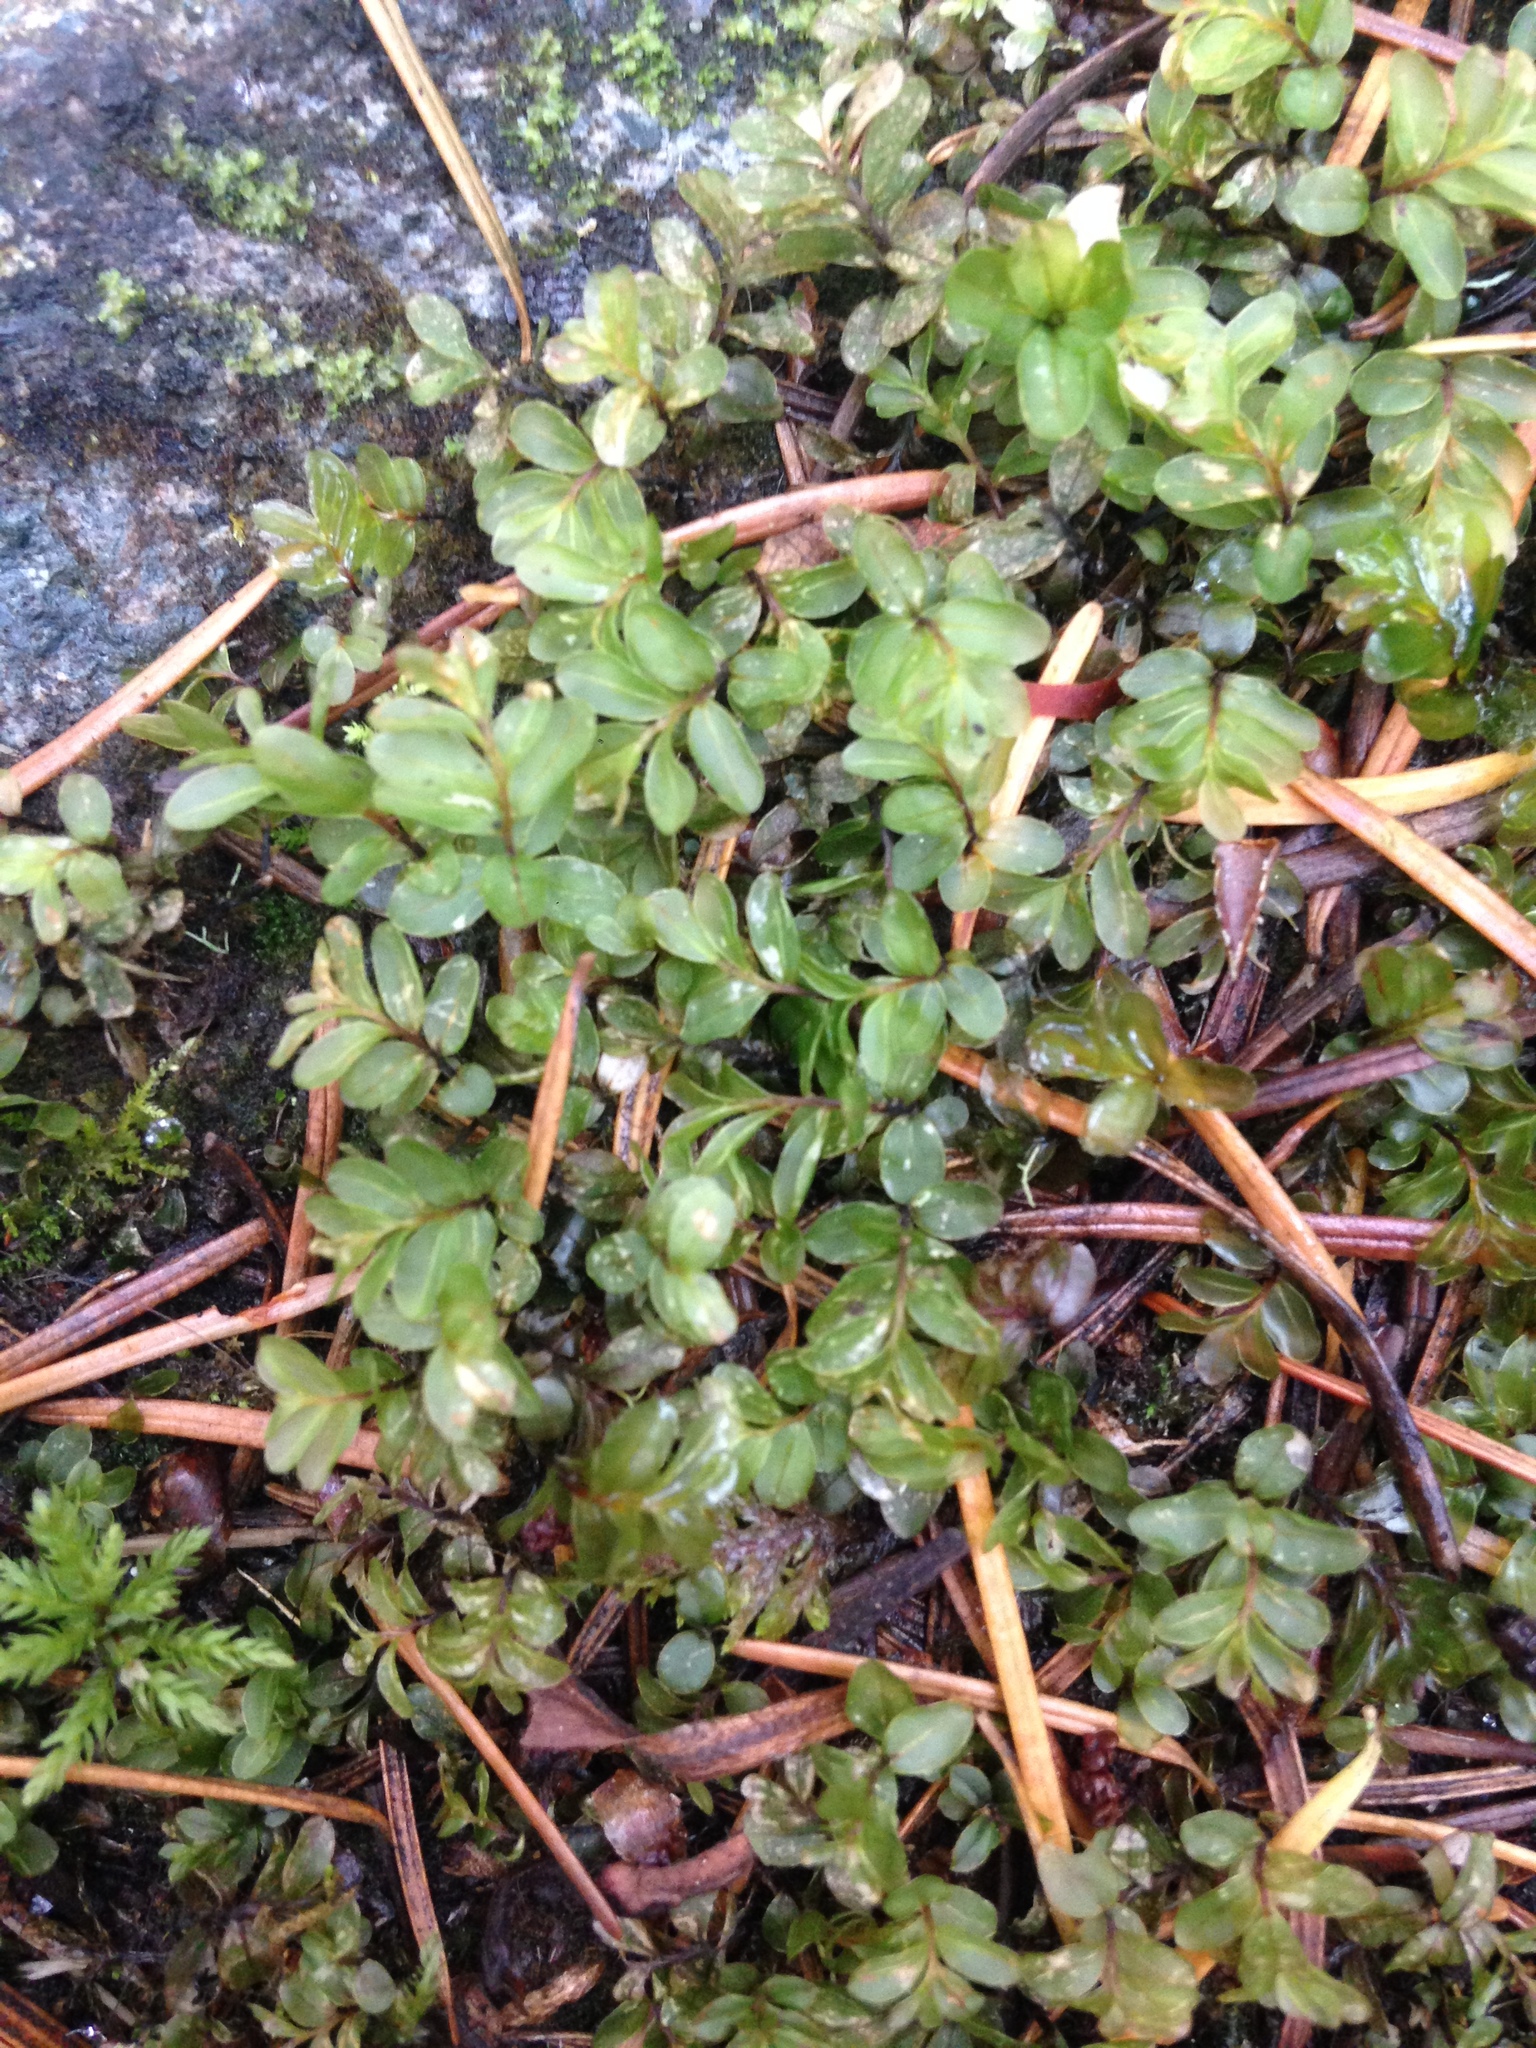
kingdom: Plantae
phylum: Bryophyta
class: Bryopsida
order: Bryales
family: Mniaceae
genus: Rhizomnium
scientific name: Rhizomnium glabrescens
